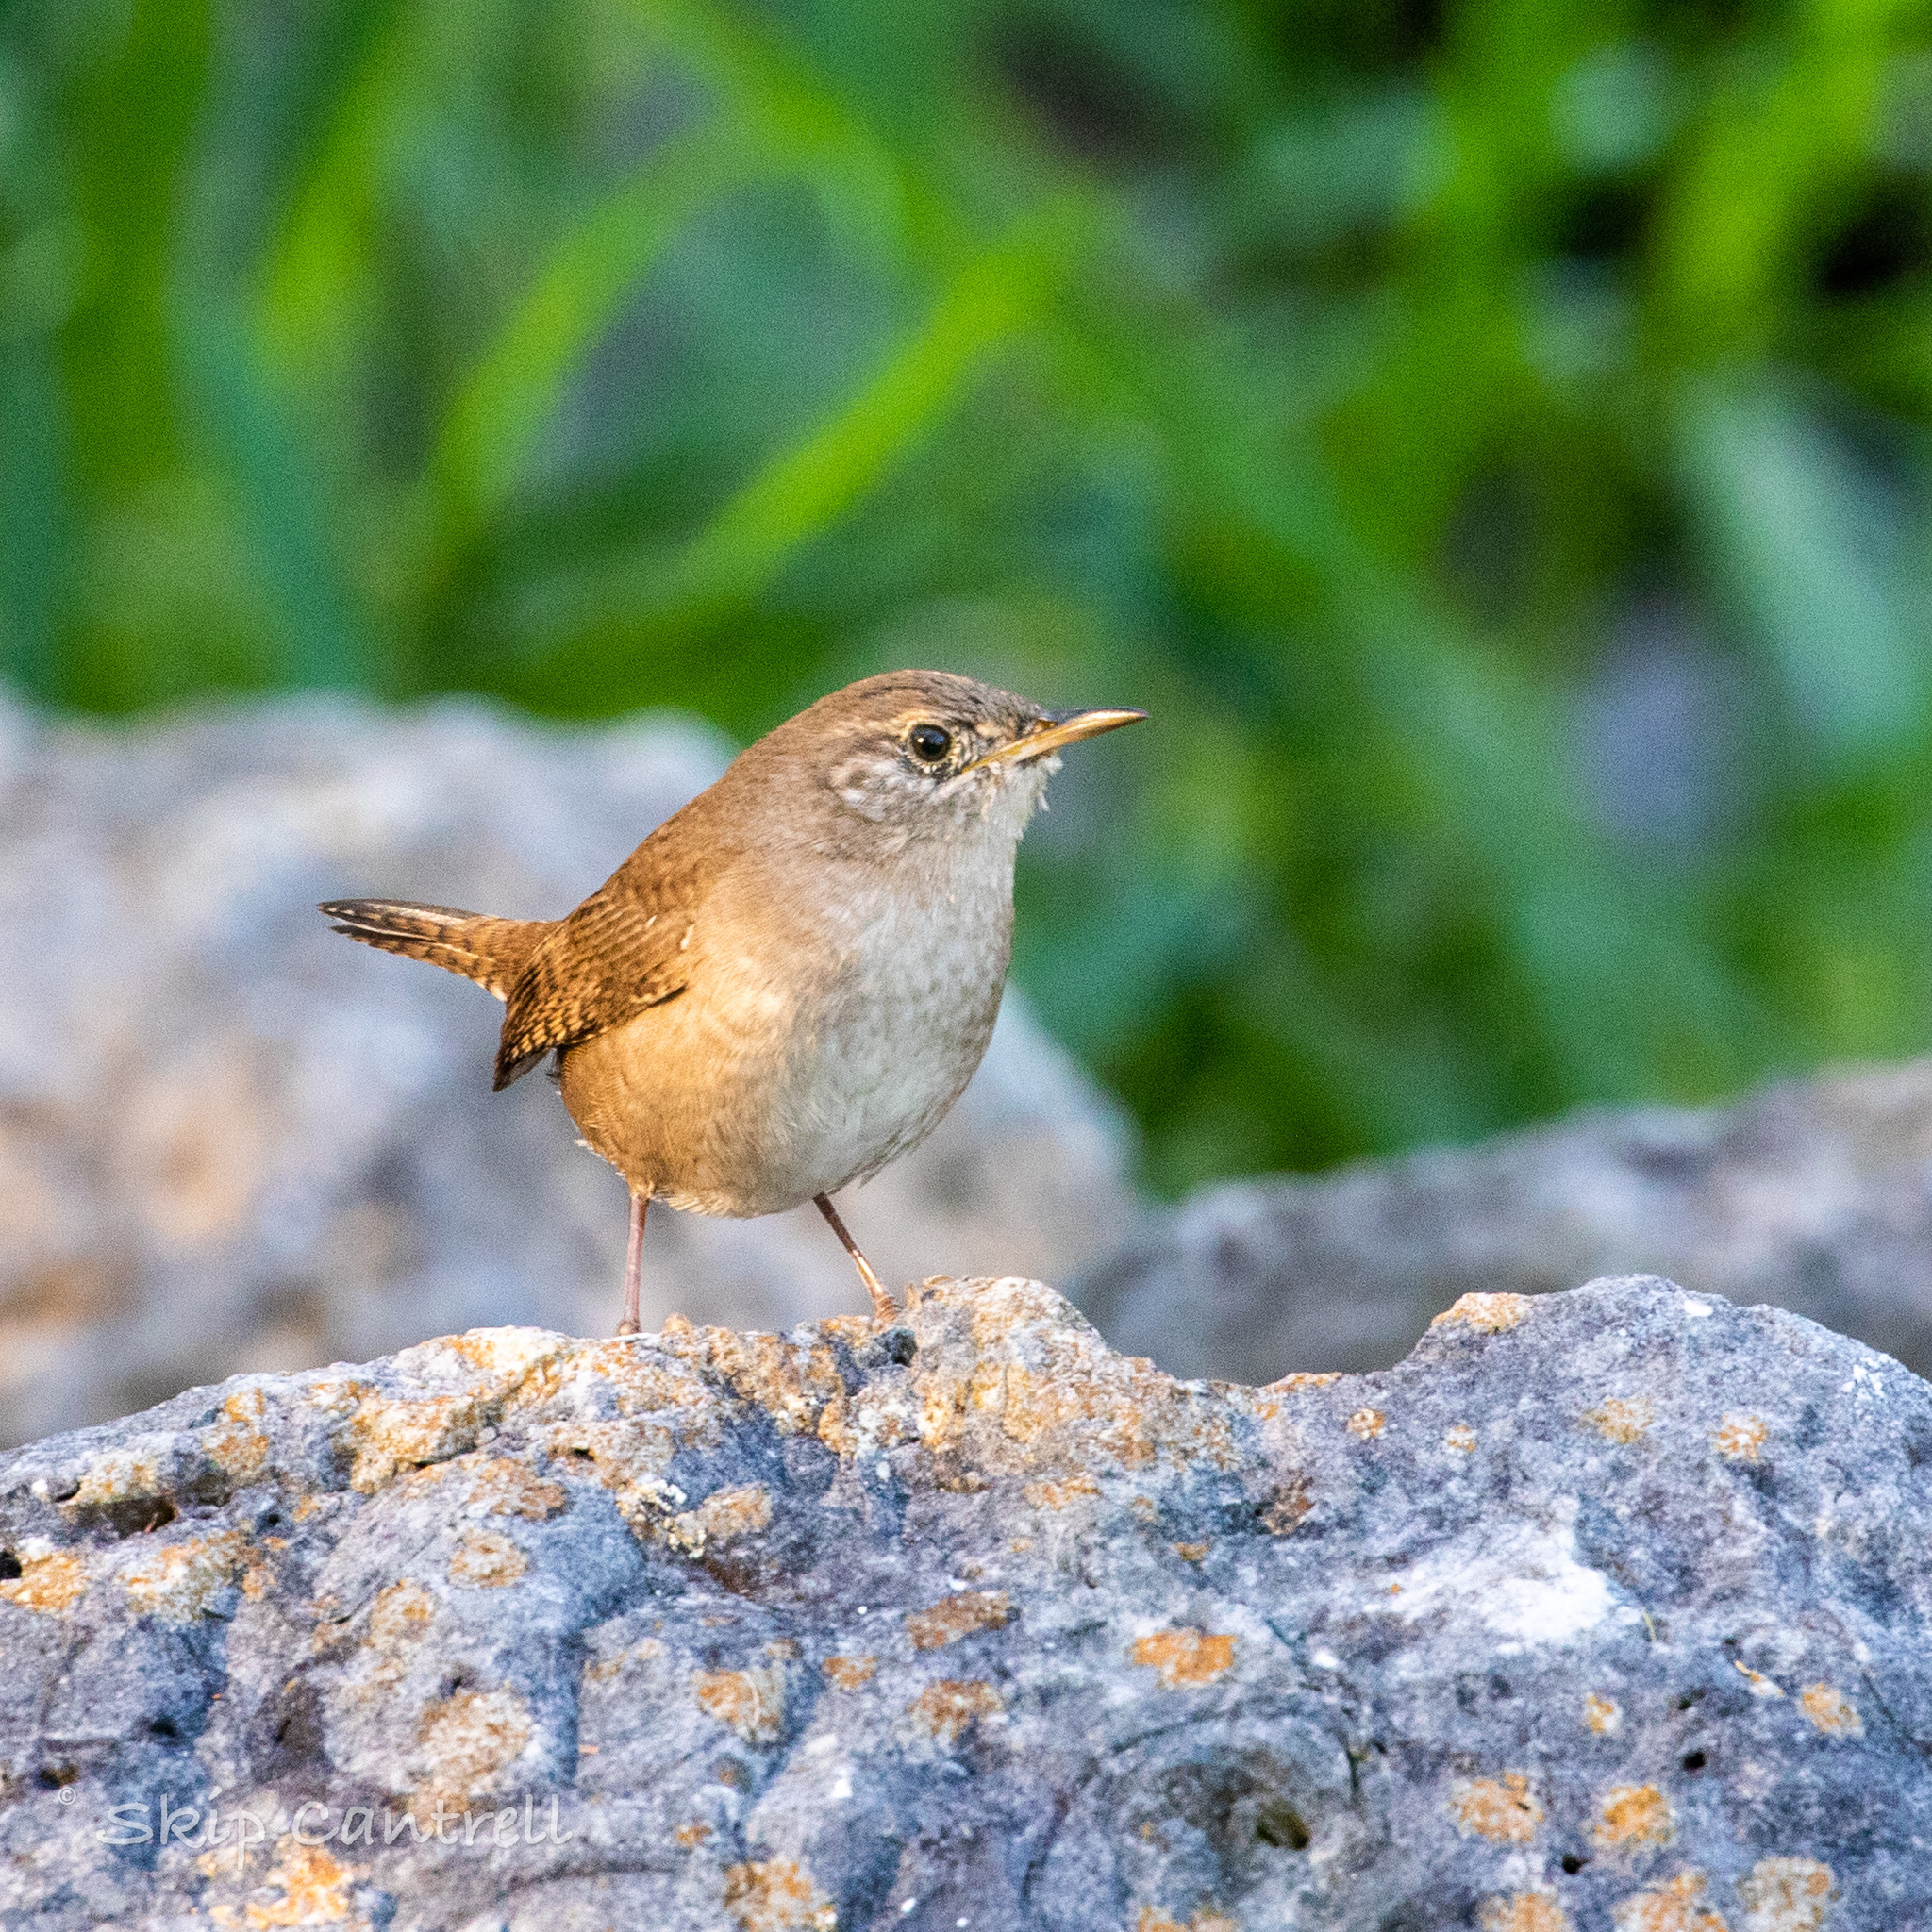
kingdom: Animalia
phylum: Chordata
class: Aves
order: Passeriformes
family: Troglodytidae
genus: Troglodytes
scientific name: Troglodytes aedon
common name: House wren
